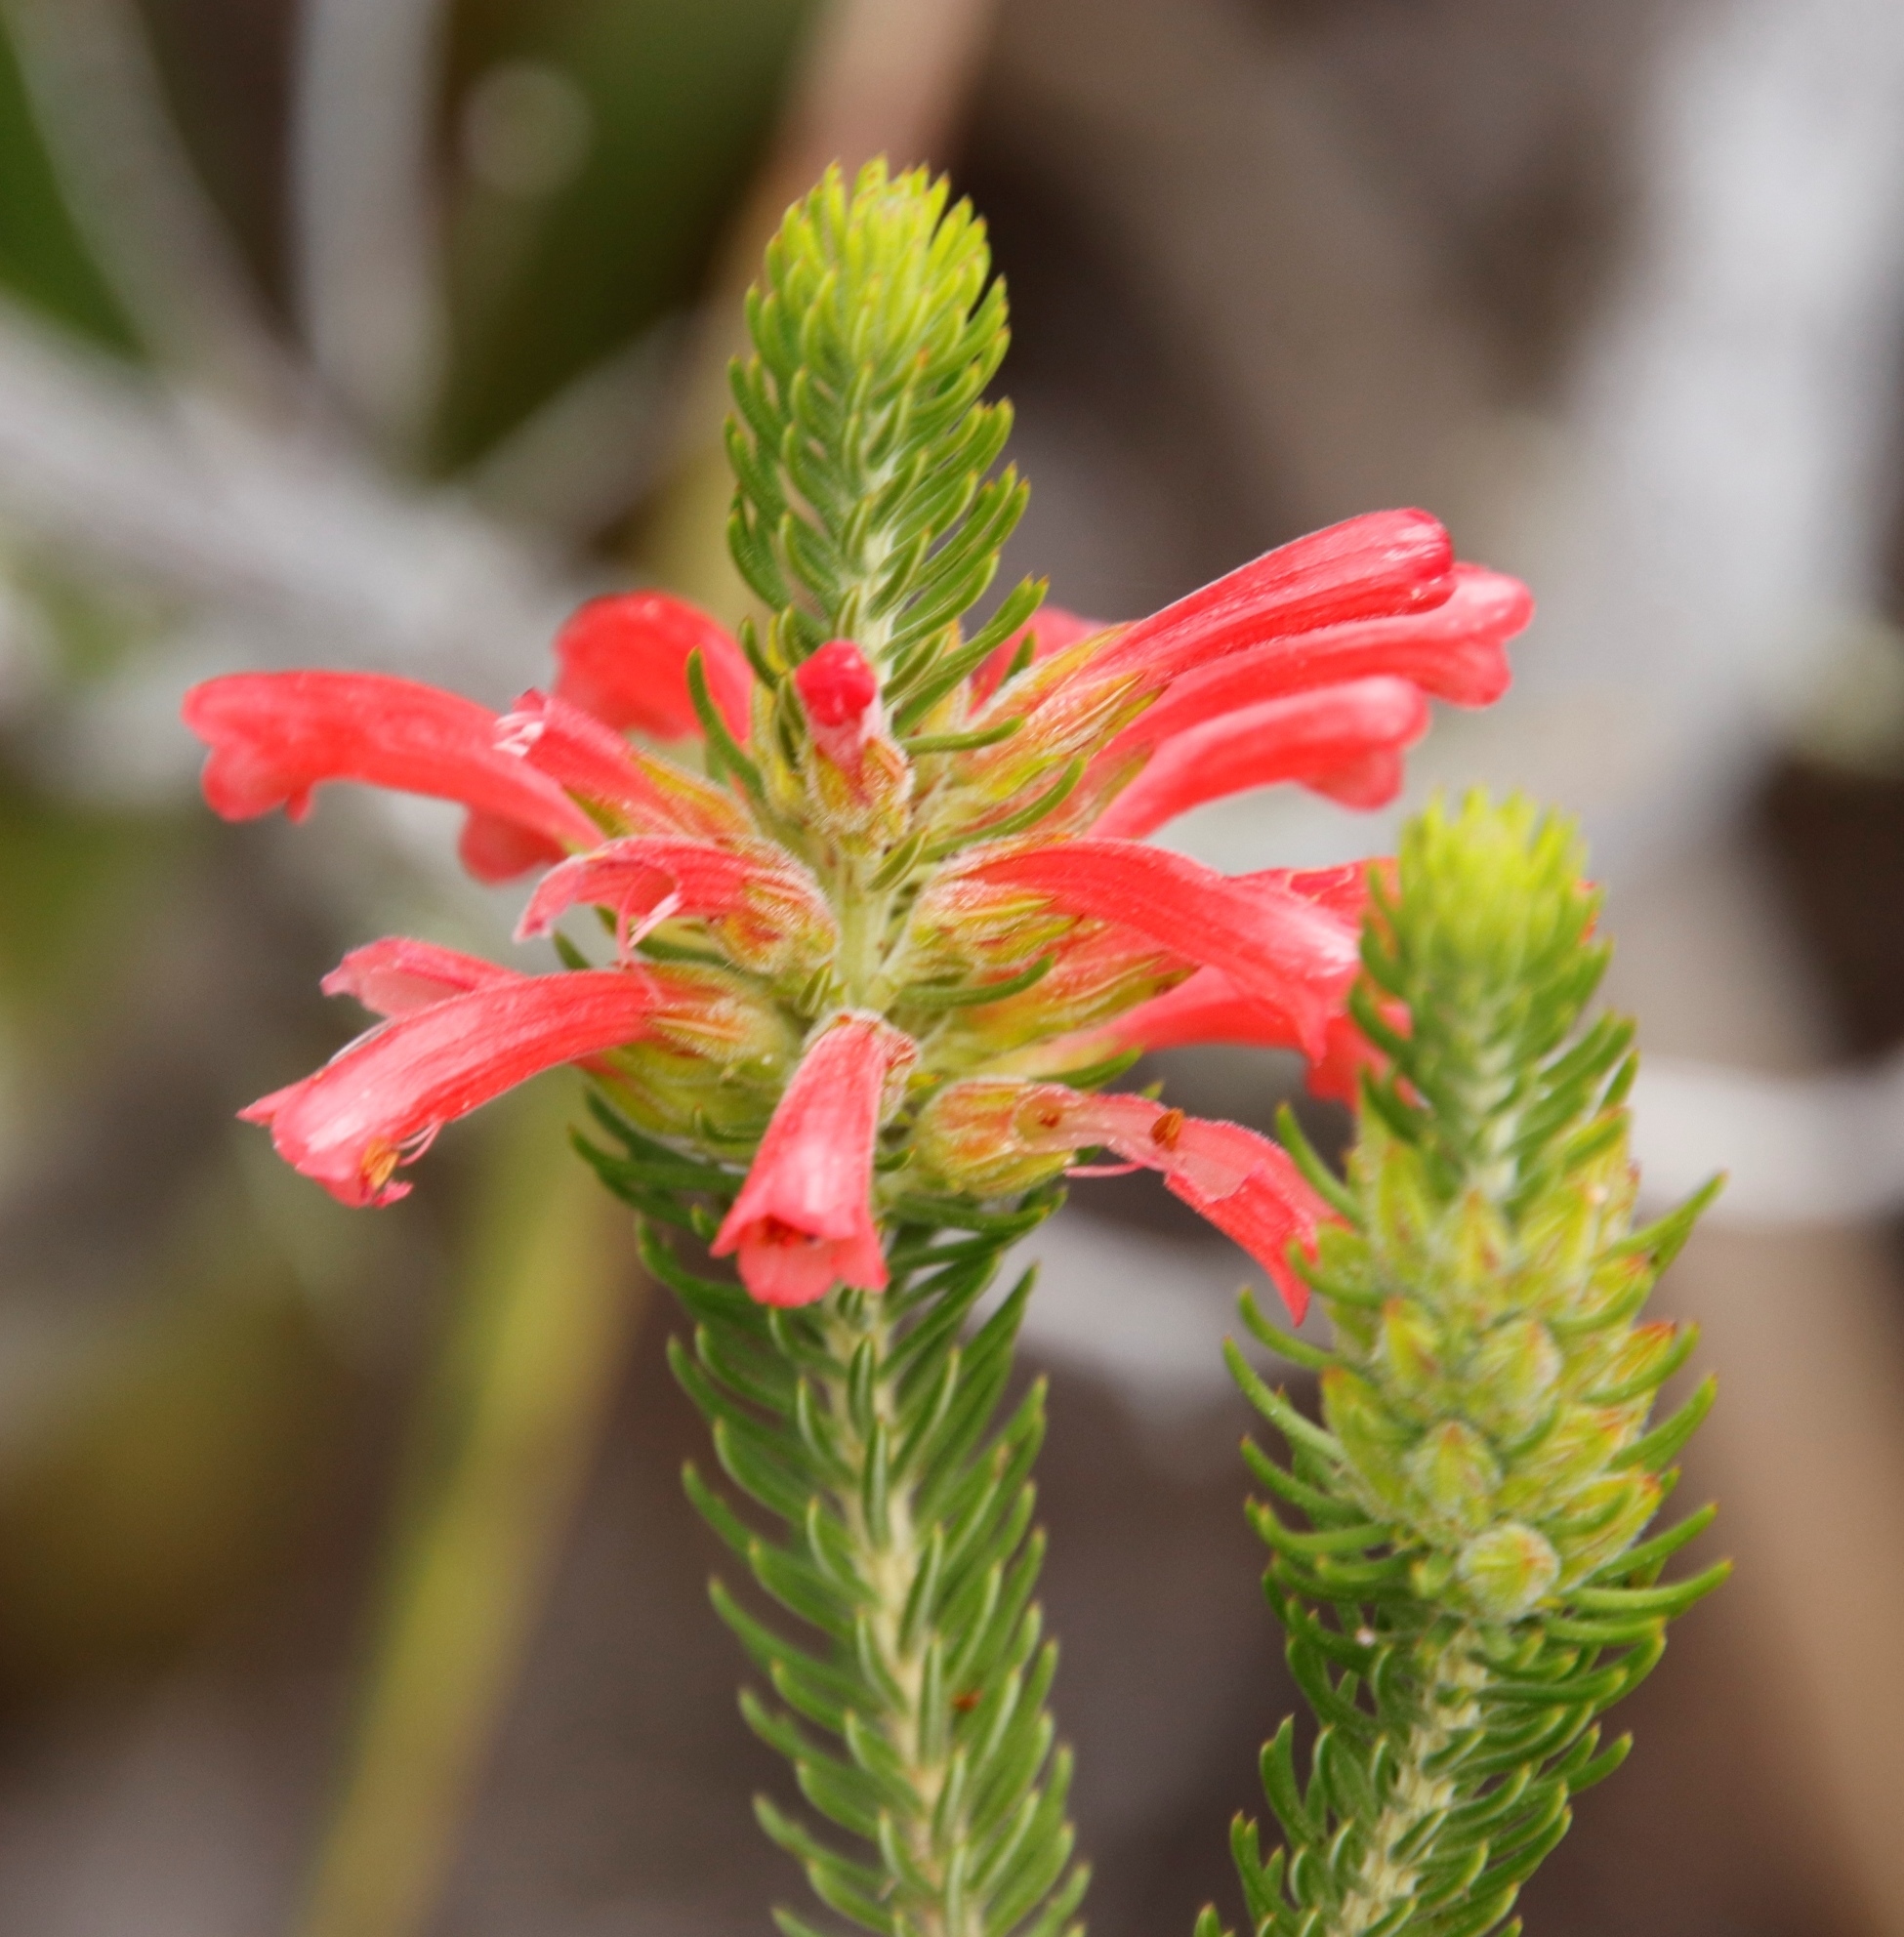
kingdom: Plantae
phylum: Tracheophyta
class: Magnoliopsida
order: Ericales
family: Ericaceae
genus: Erica
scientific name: Erica abietina
